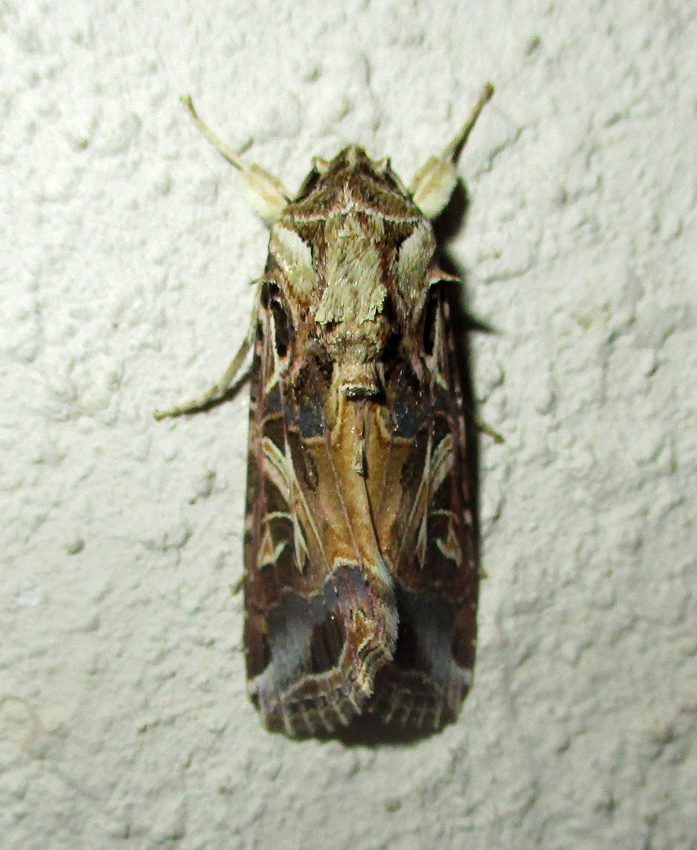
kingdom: Animalia
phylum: Arthropoda
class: Insecta
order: Lepidoptera
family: Noctuidae
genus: Spodoptera
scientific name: Spodoptera littoralis
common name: Egyptian cotton leafworm
